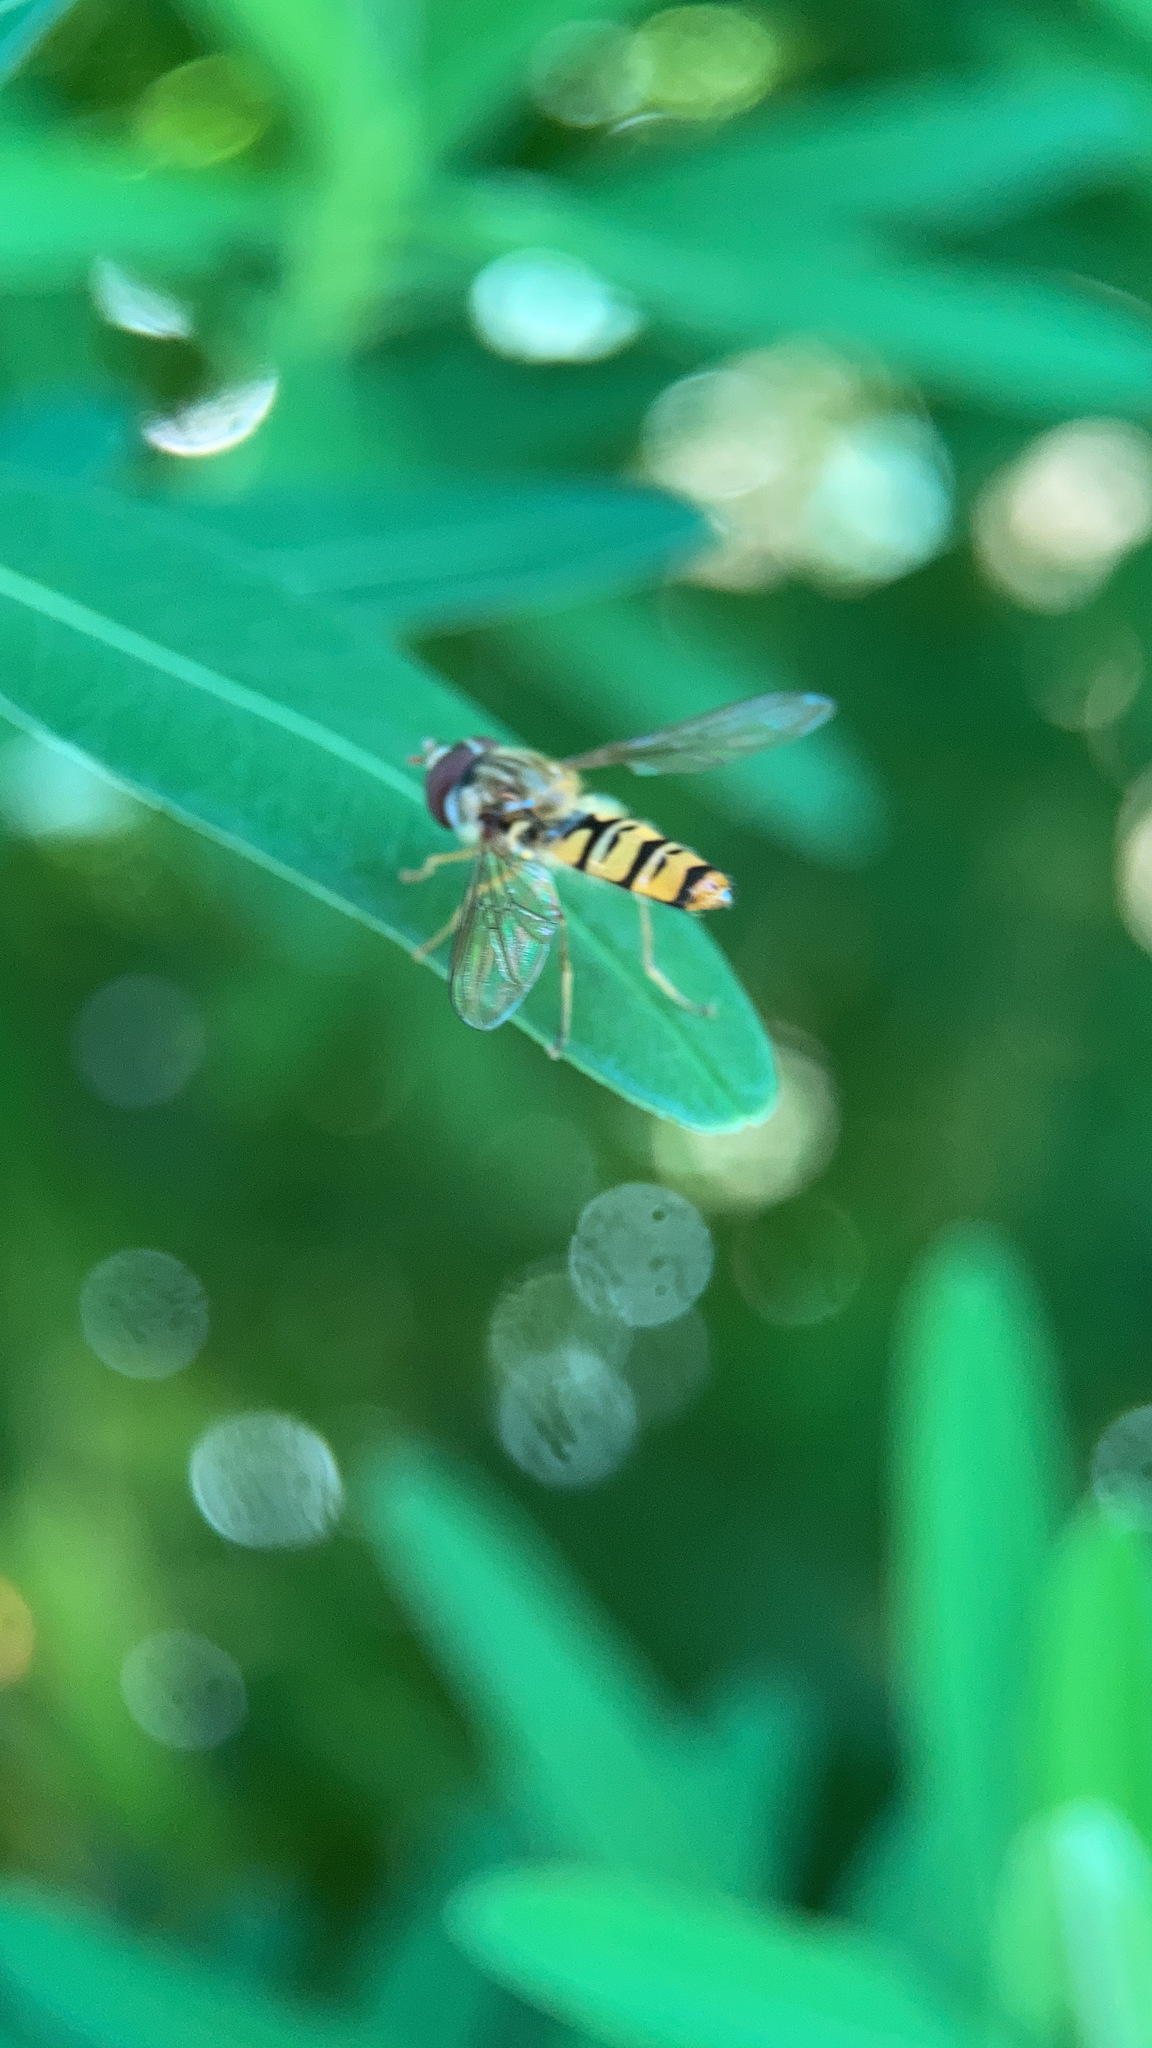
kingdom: Animalia
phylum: Arthropoda
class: Insecta
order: Diptera
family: Syrphidae
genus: Episyrphus
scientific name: Episyrphus balteatus
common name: Marmalade hoverfly
